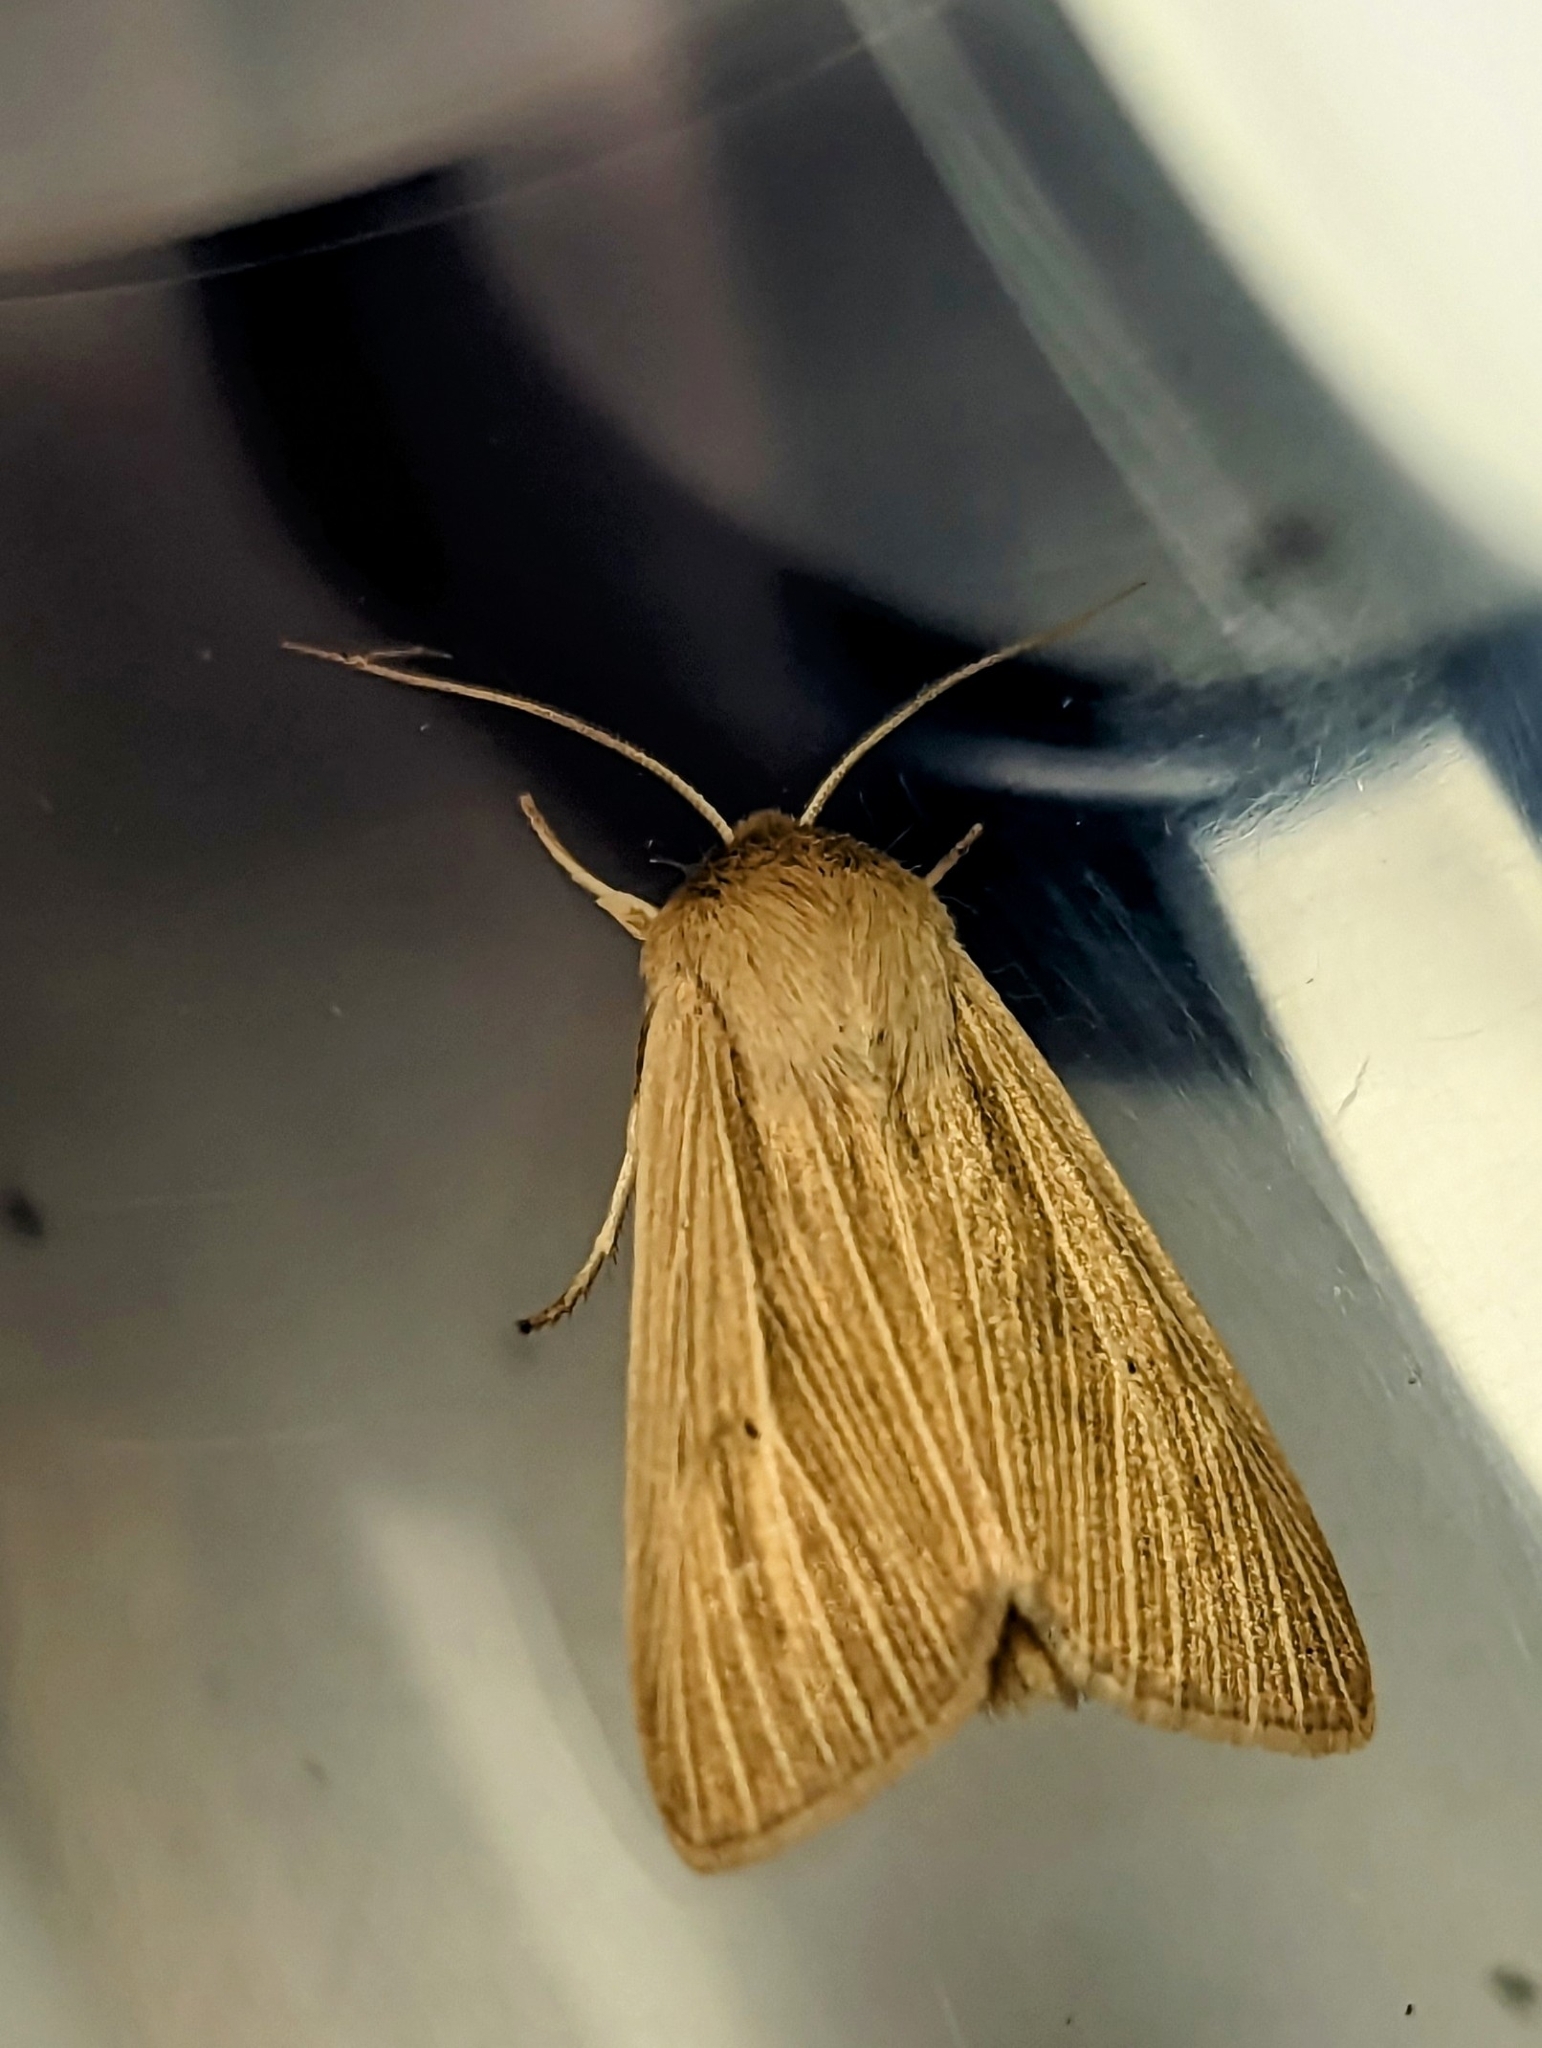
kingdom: Animalia
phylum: Arthropoda
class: Insecta
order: Lepidoptera
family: Noctuidae
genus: Mythimna
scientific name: Mythimna
